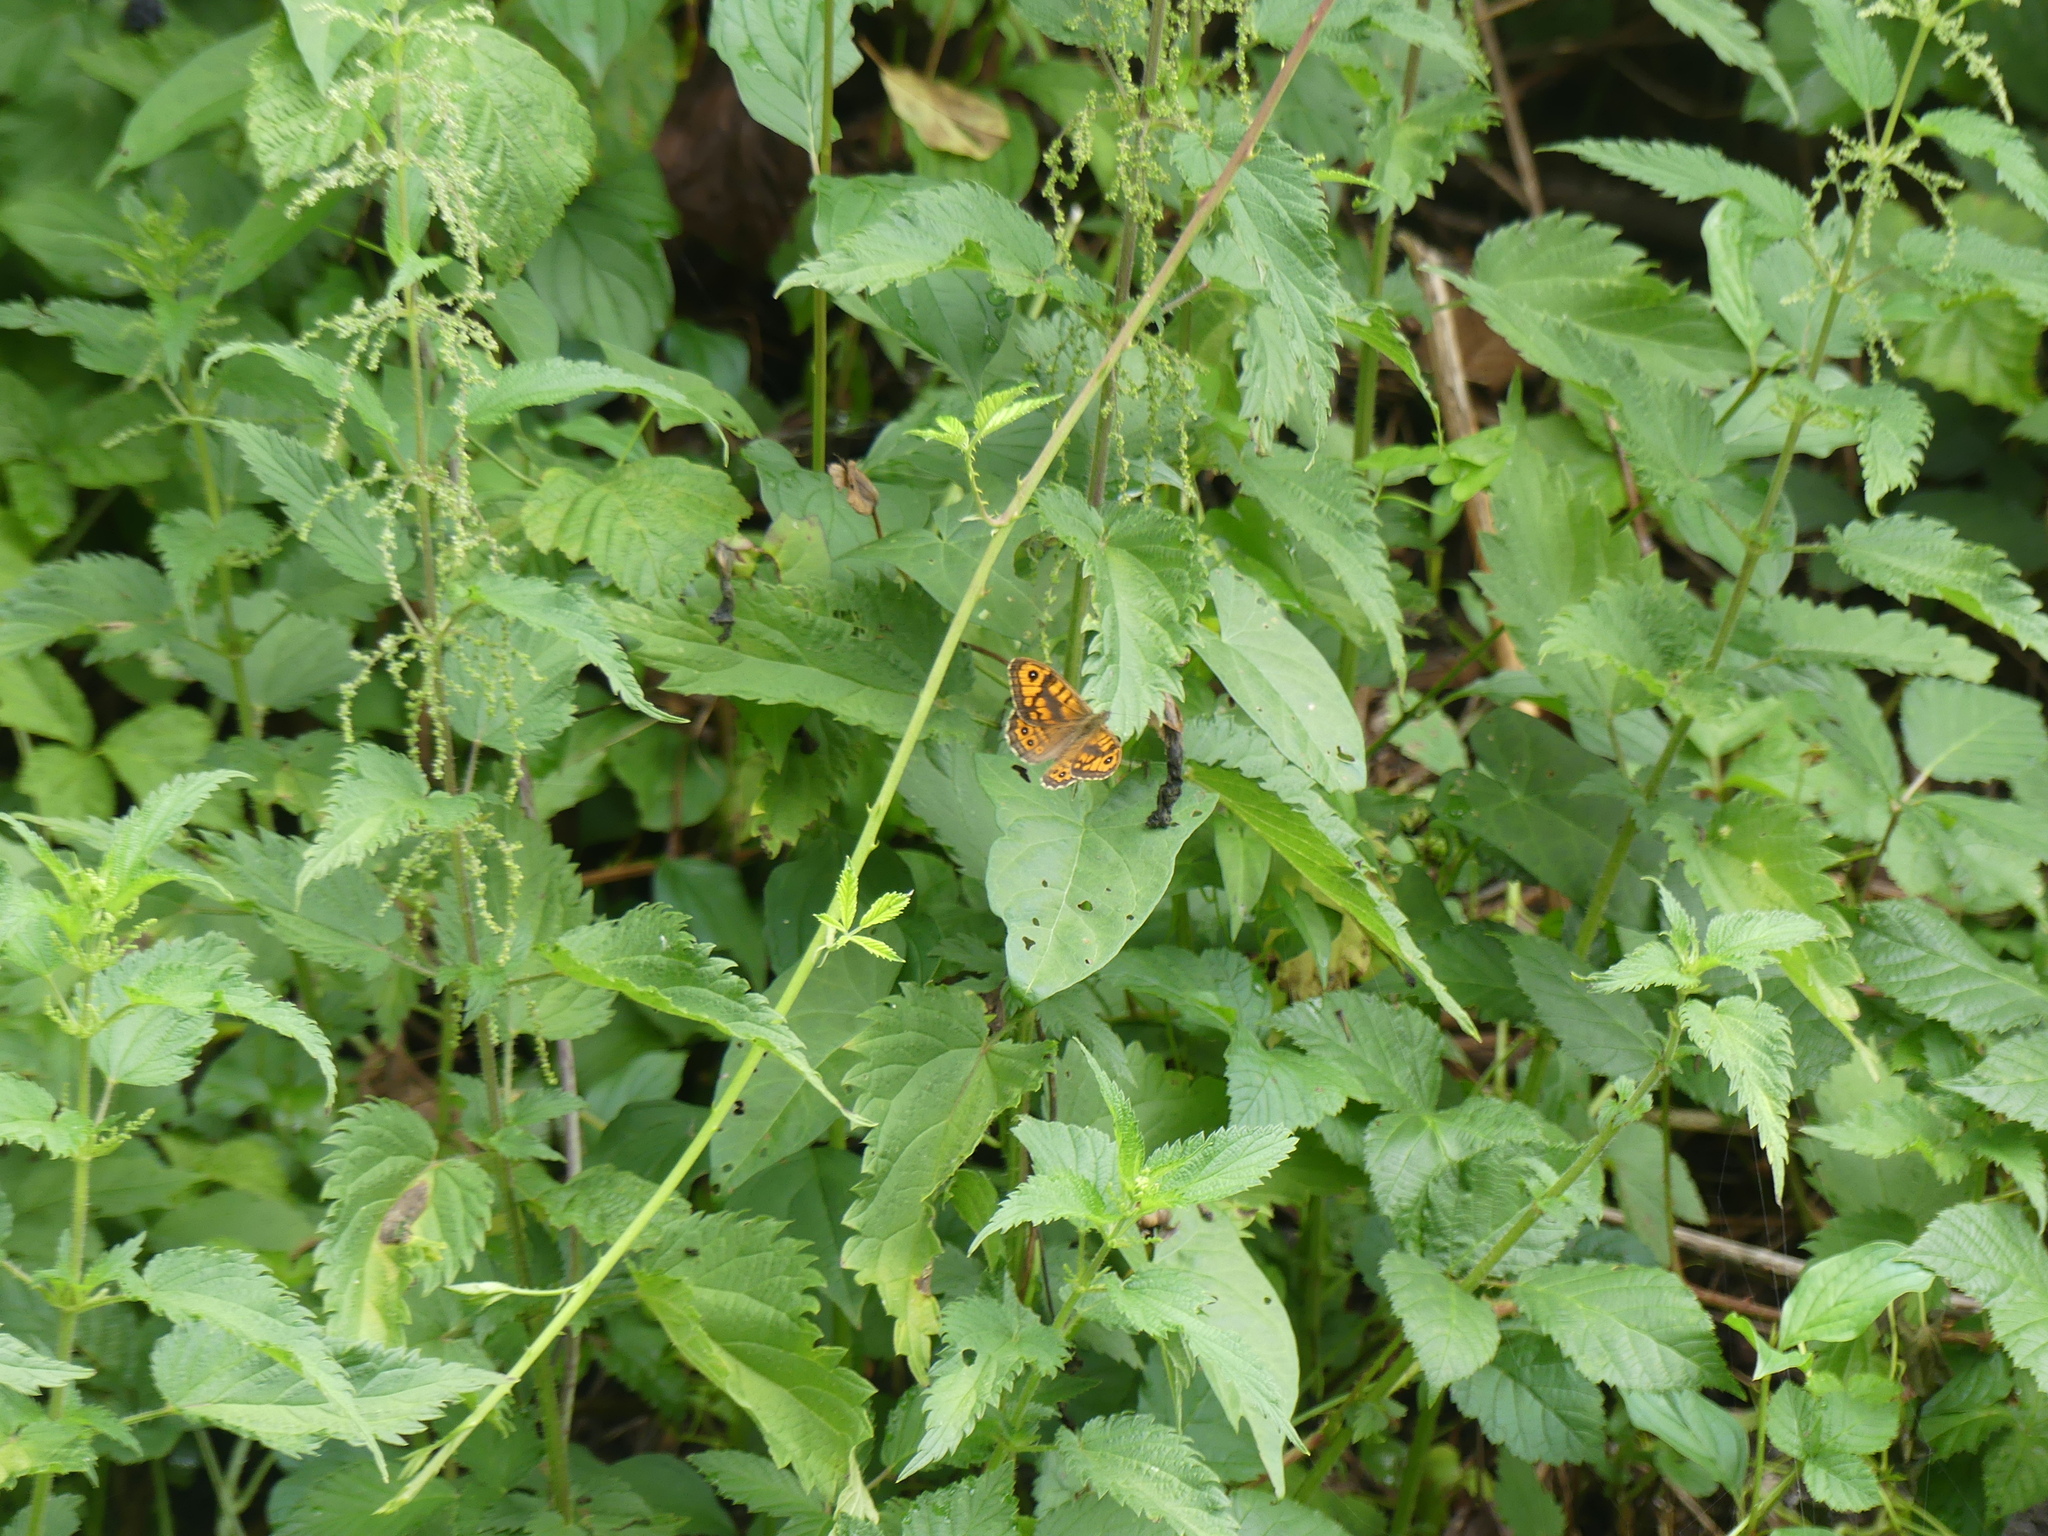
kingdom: Animalia
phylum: Arthropoda
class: Insecta
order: Lepidoptera
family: Nymphalidae
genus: Pararge
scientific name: Pararge Lasiommata megera
